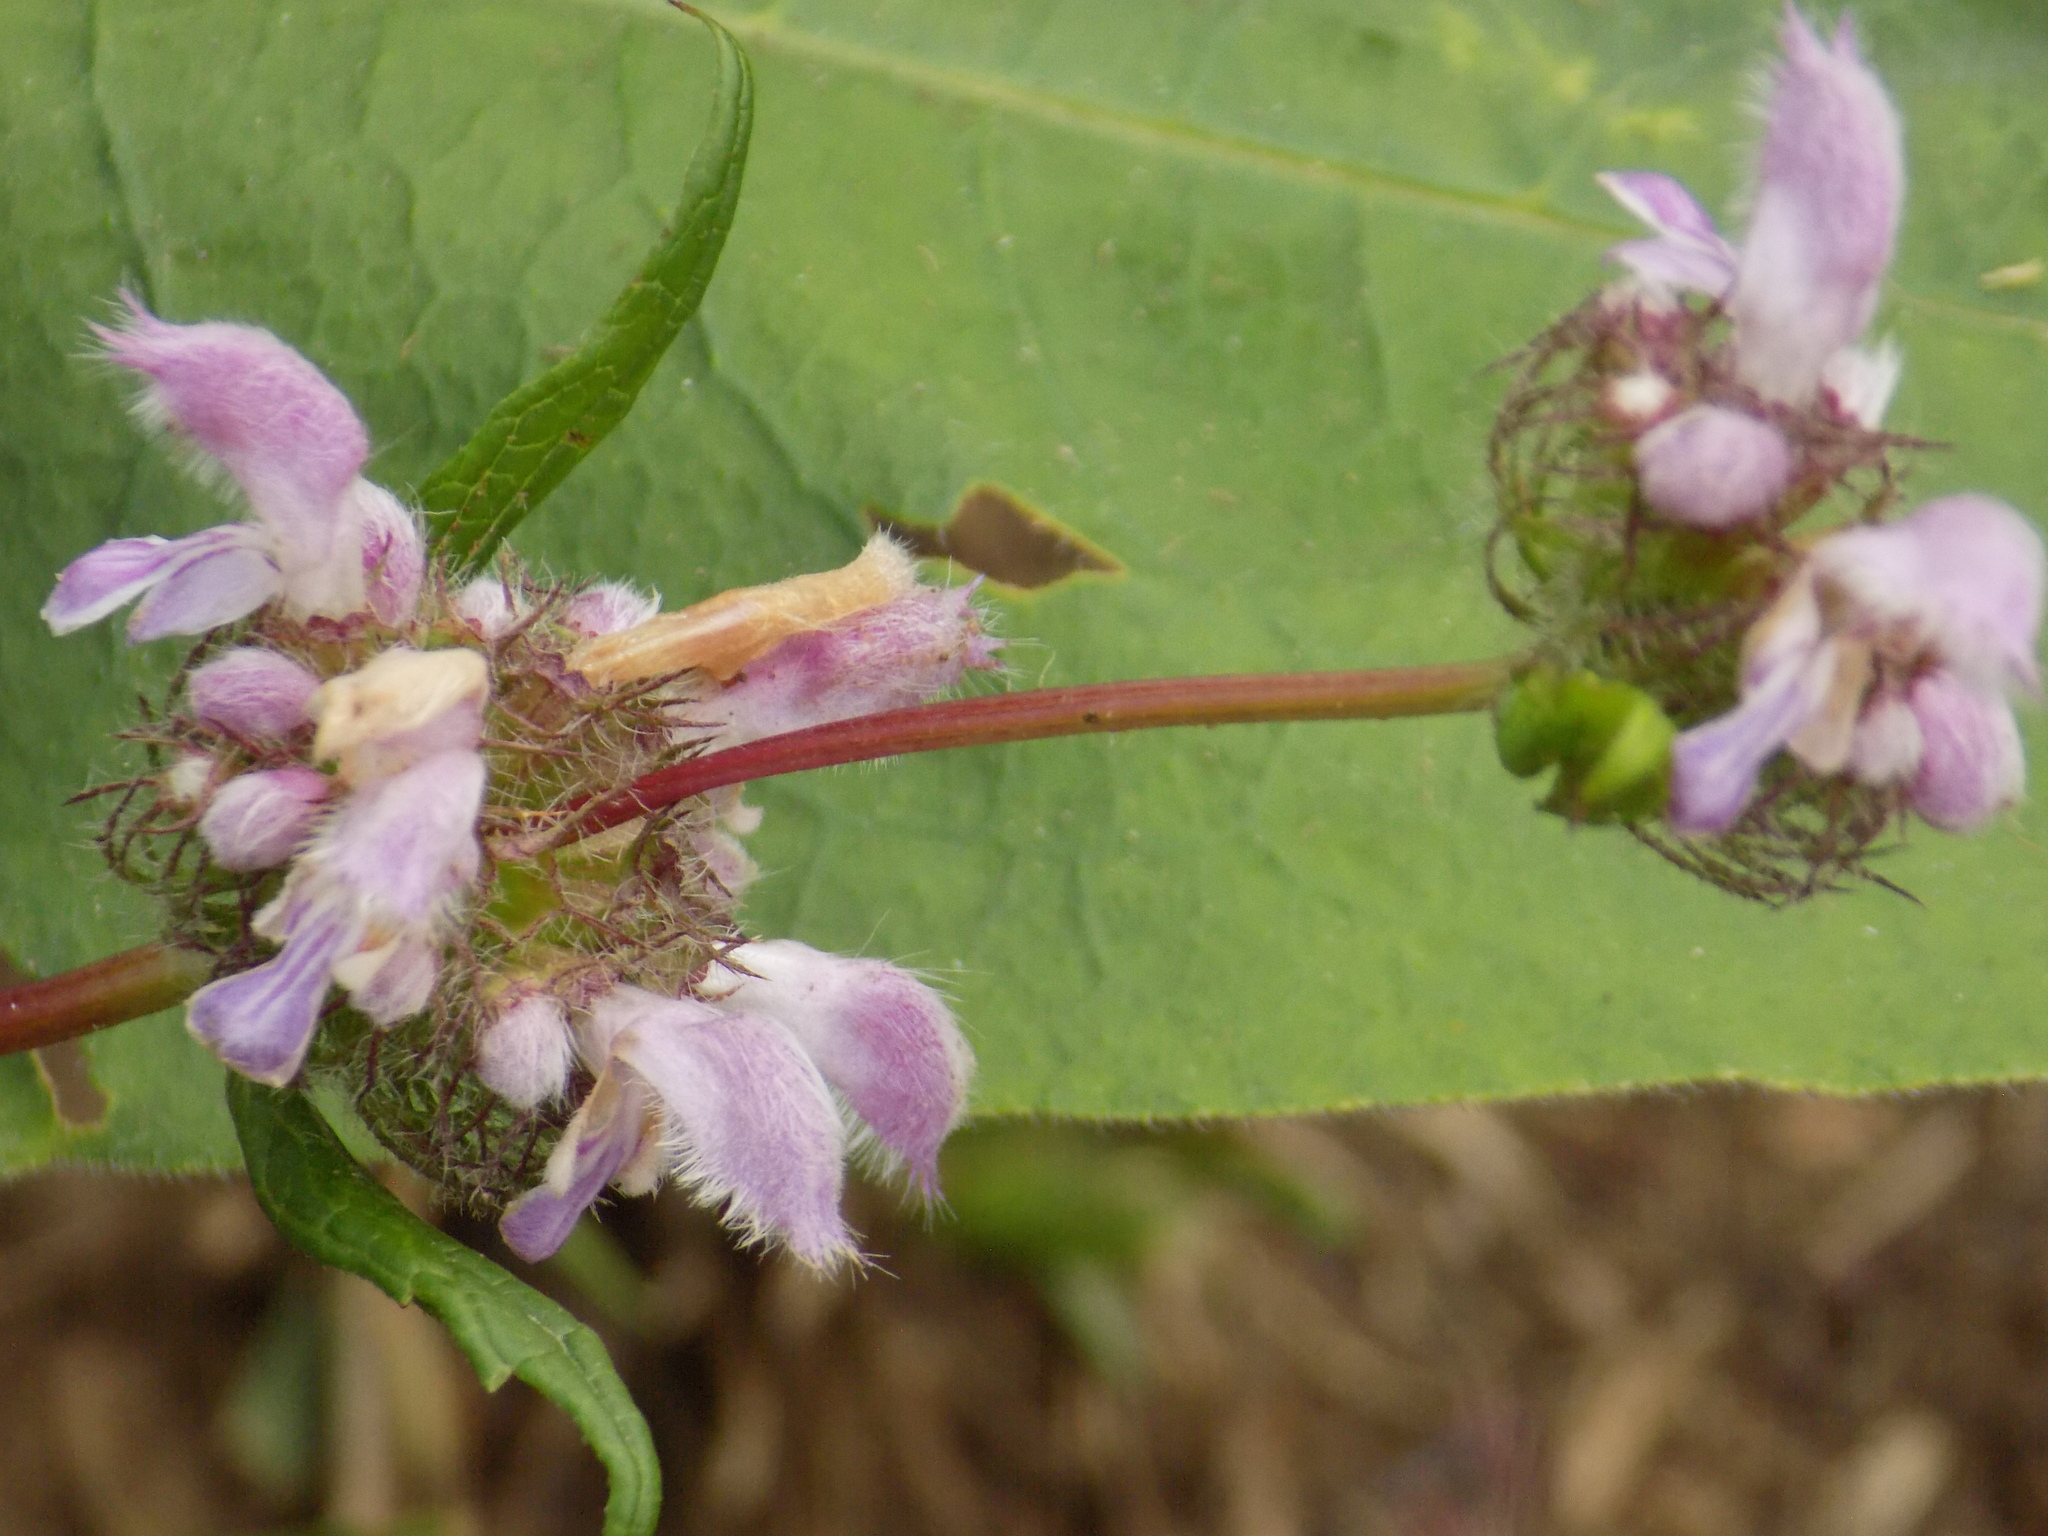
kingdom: Plantae
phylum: Tracheophyta
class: Magnoliopsida
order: Lamiales
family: Lamiaceae
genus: Phlomoides
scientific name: Phlomoides tuberosa
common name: Tuberous jerusalem sage
